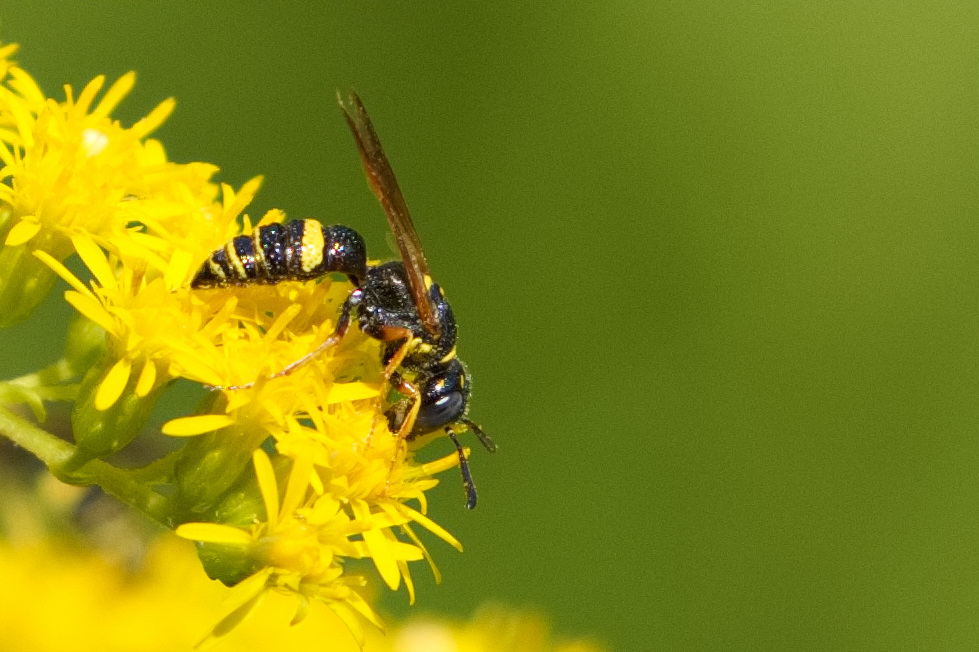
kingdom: Animalia
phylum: Arthropoda
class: Insecta
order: Hymenoptera
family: Crabronidae
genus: Philanthus
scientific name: Philanthus gibbosus
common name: Humped beewolf
